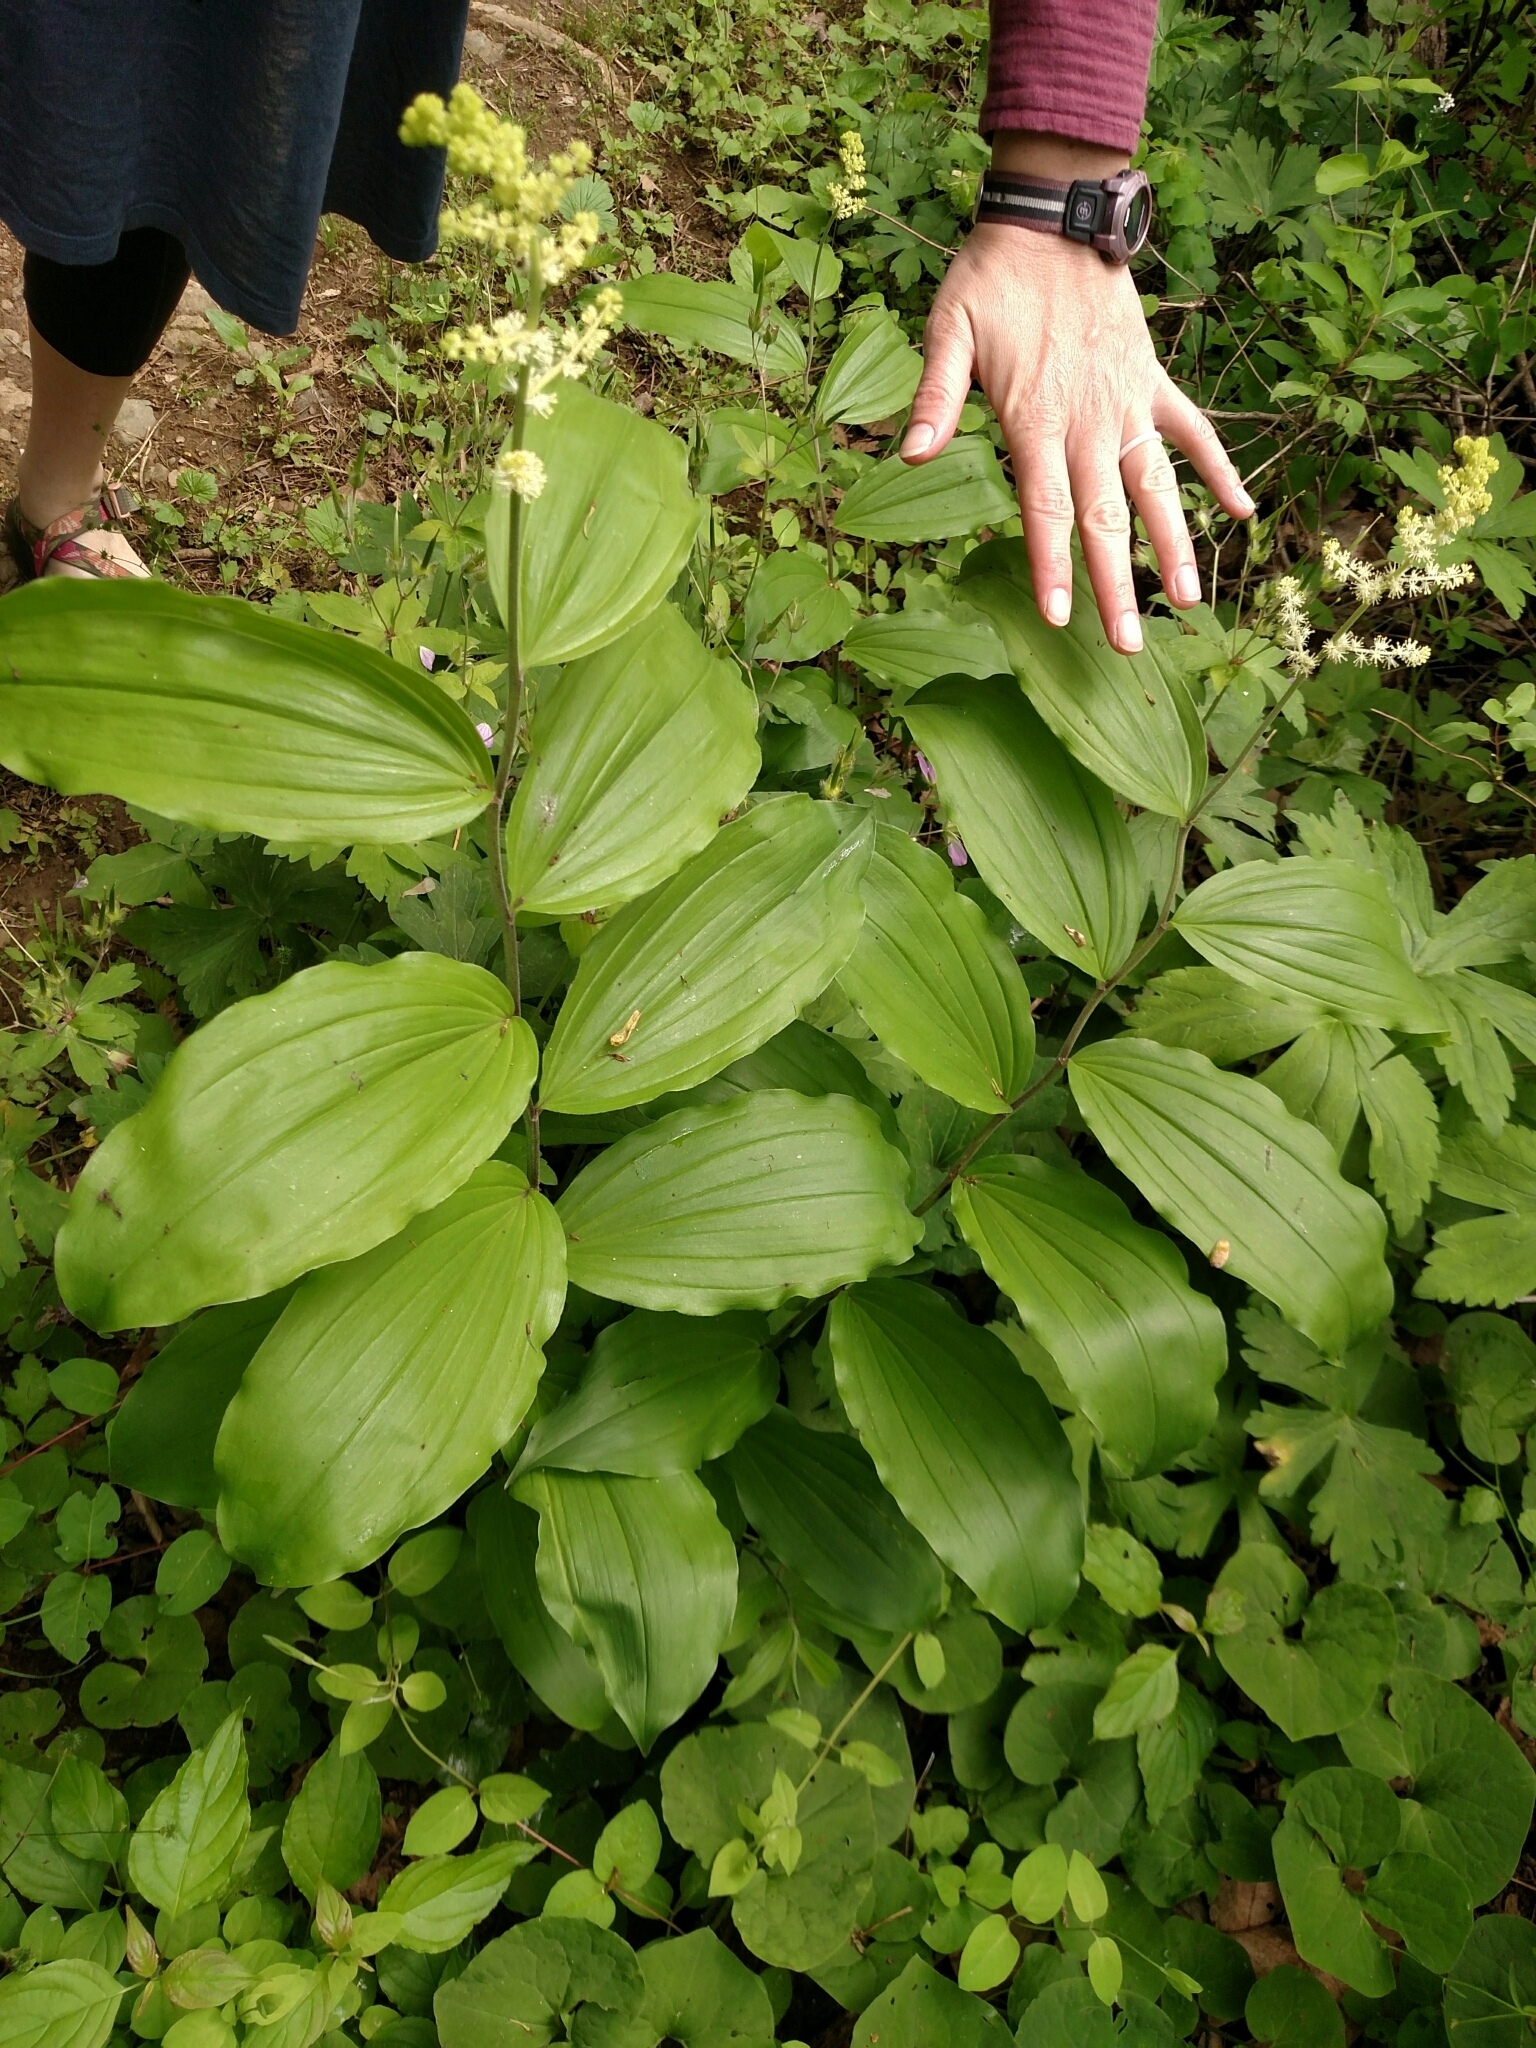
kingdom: Plantae
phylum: Tracheophyta
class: Liliopsida
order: Asparagales
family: Asparagaceae
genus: Maianthemum
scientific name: Maianthemum racemosum
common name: False spikenard
